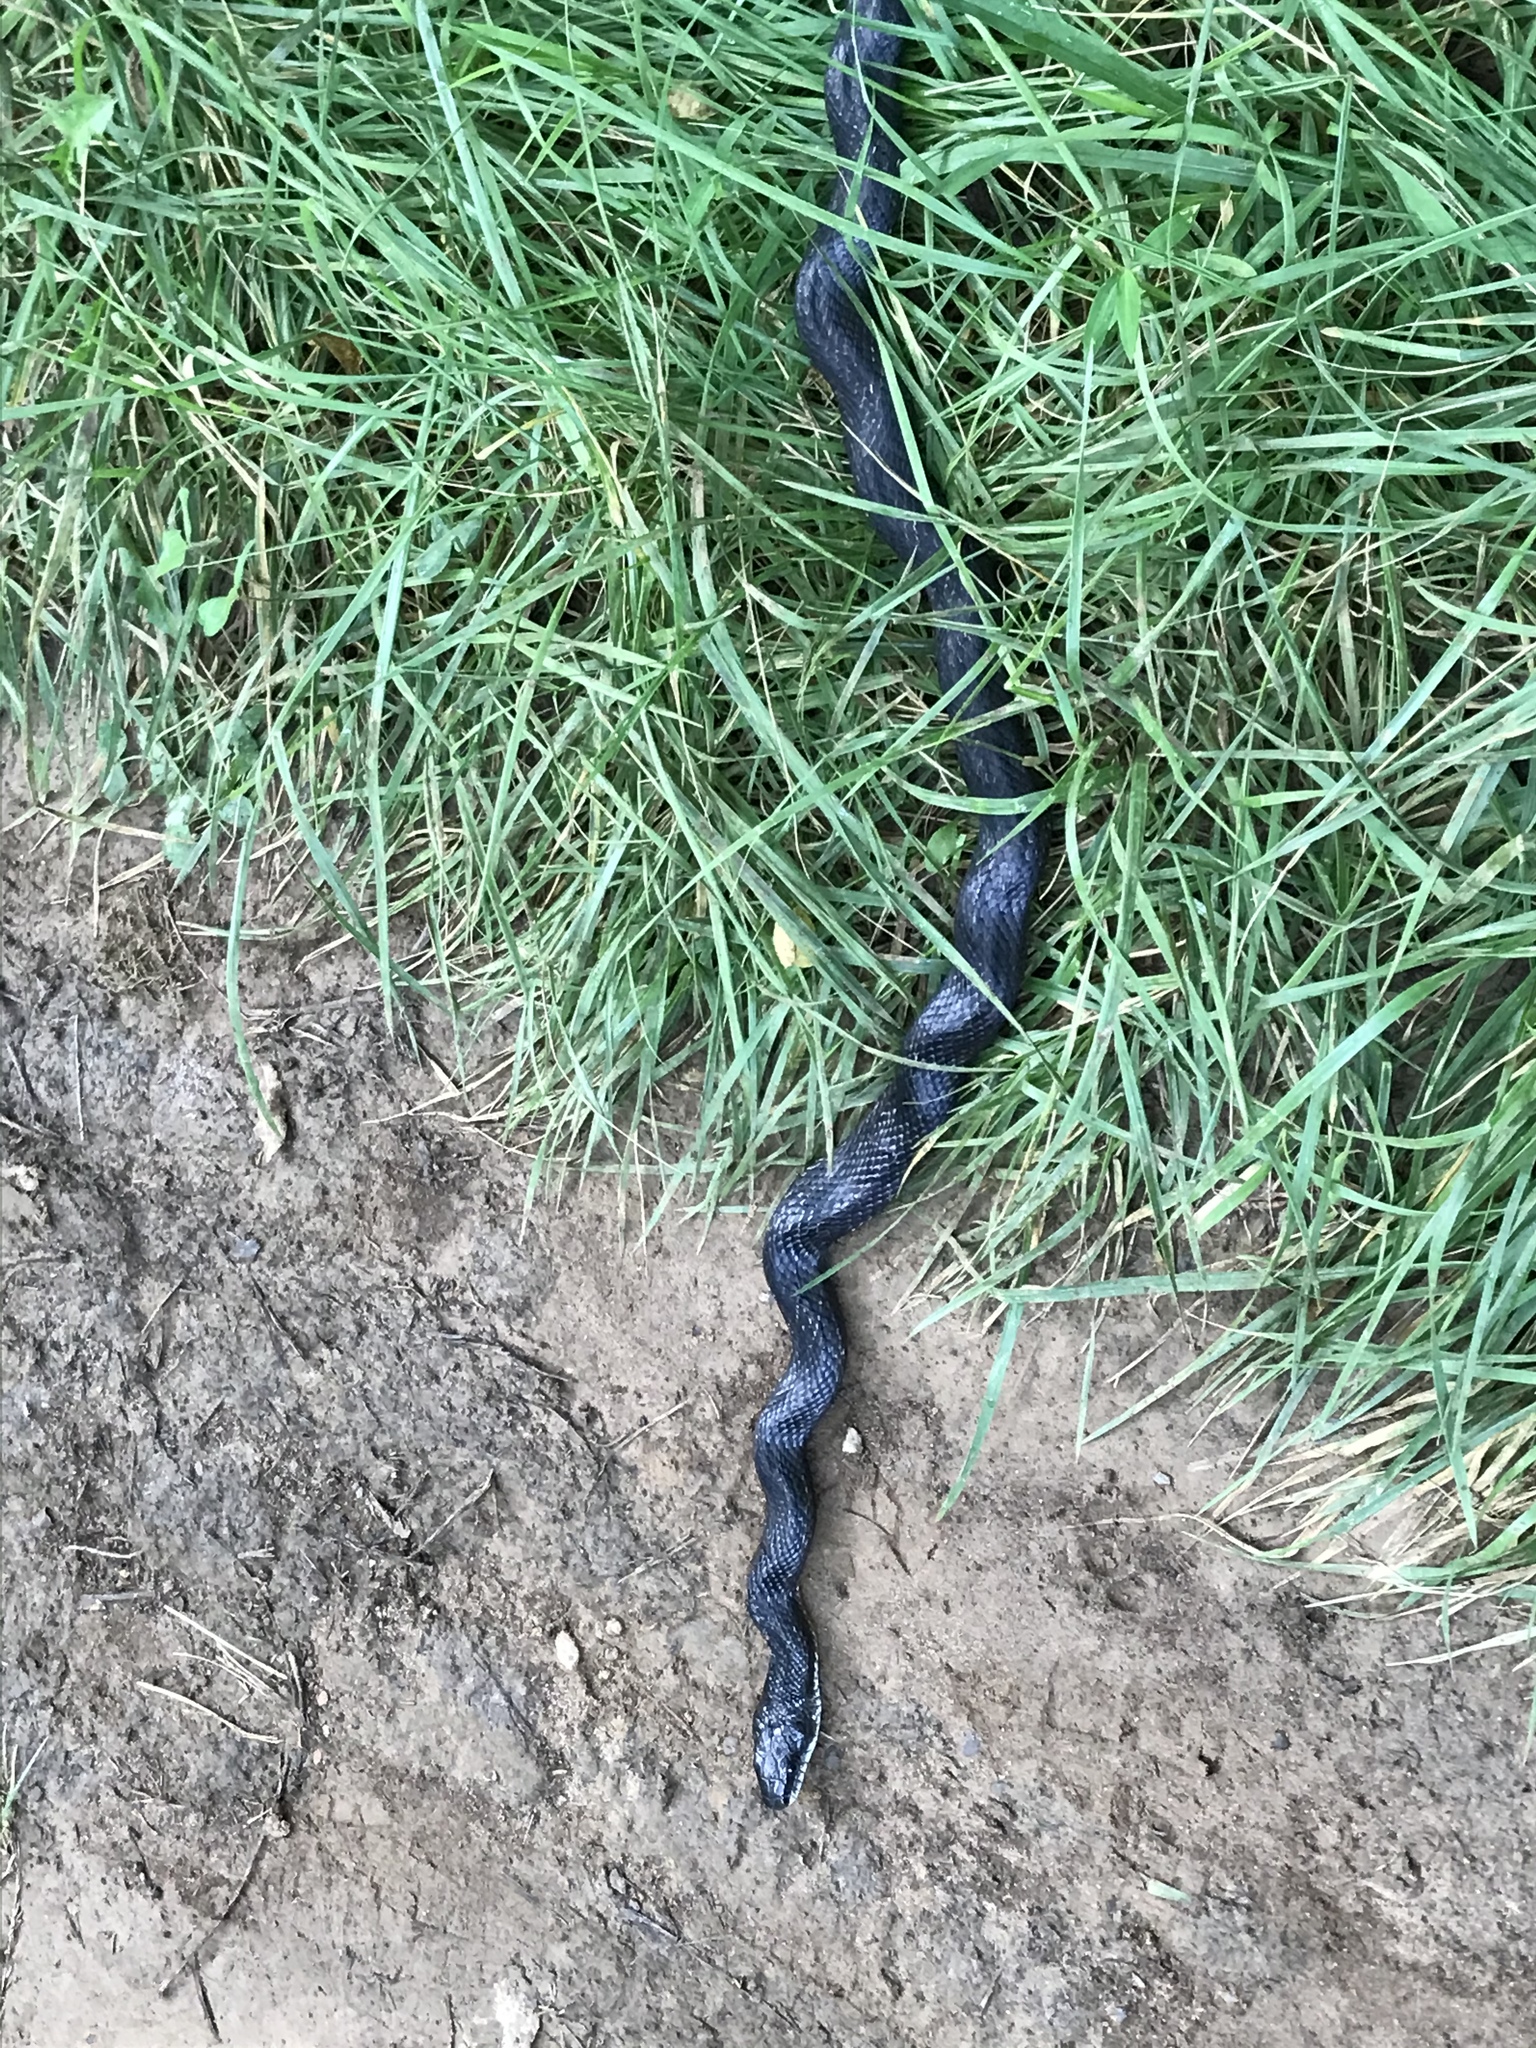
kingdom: Animalia
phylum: Chordata
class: Squamata
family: Colubridae
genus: Pantherophis
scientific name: Pantherophis spiloides
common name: Gray rat snake
